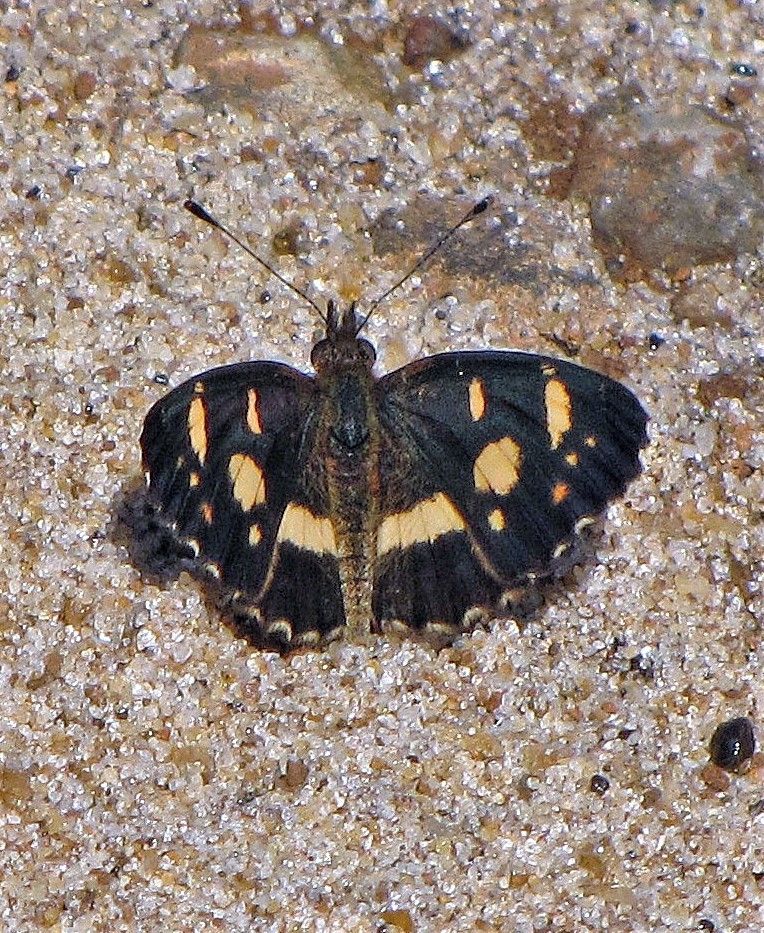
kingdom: Animalia
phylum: Arthropoda
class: Insecta
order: Lepidoptera
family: Nymphalidae
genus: Ortilia
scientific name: Ortilia orthia
